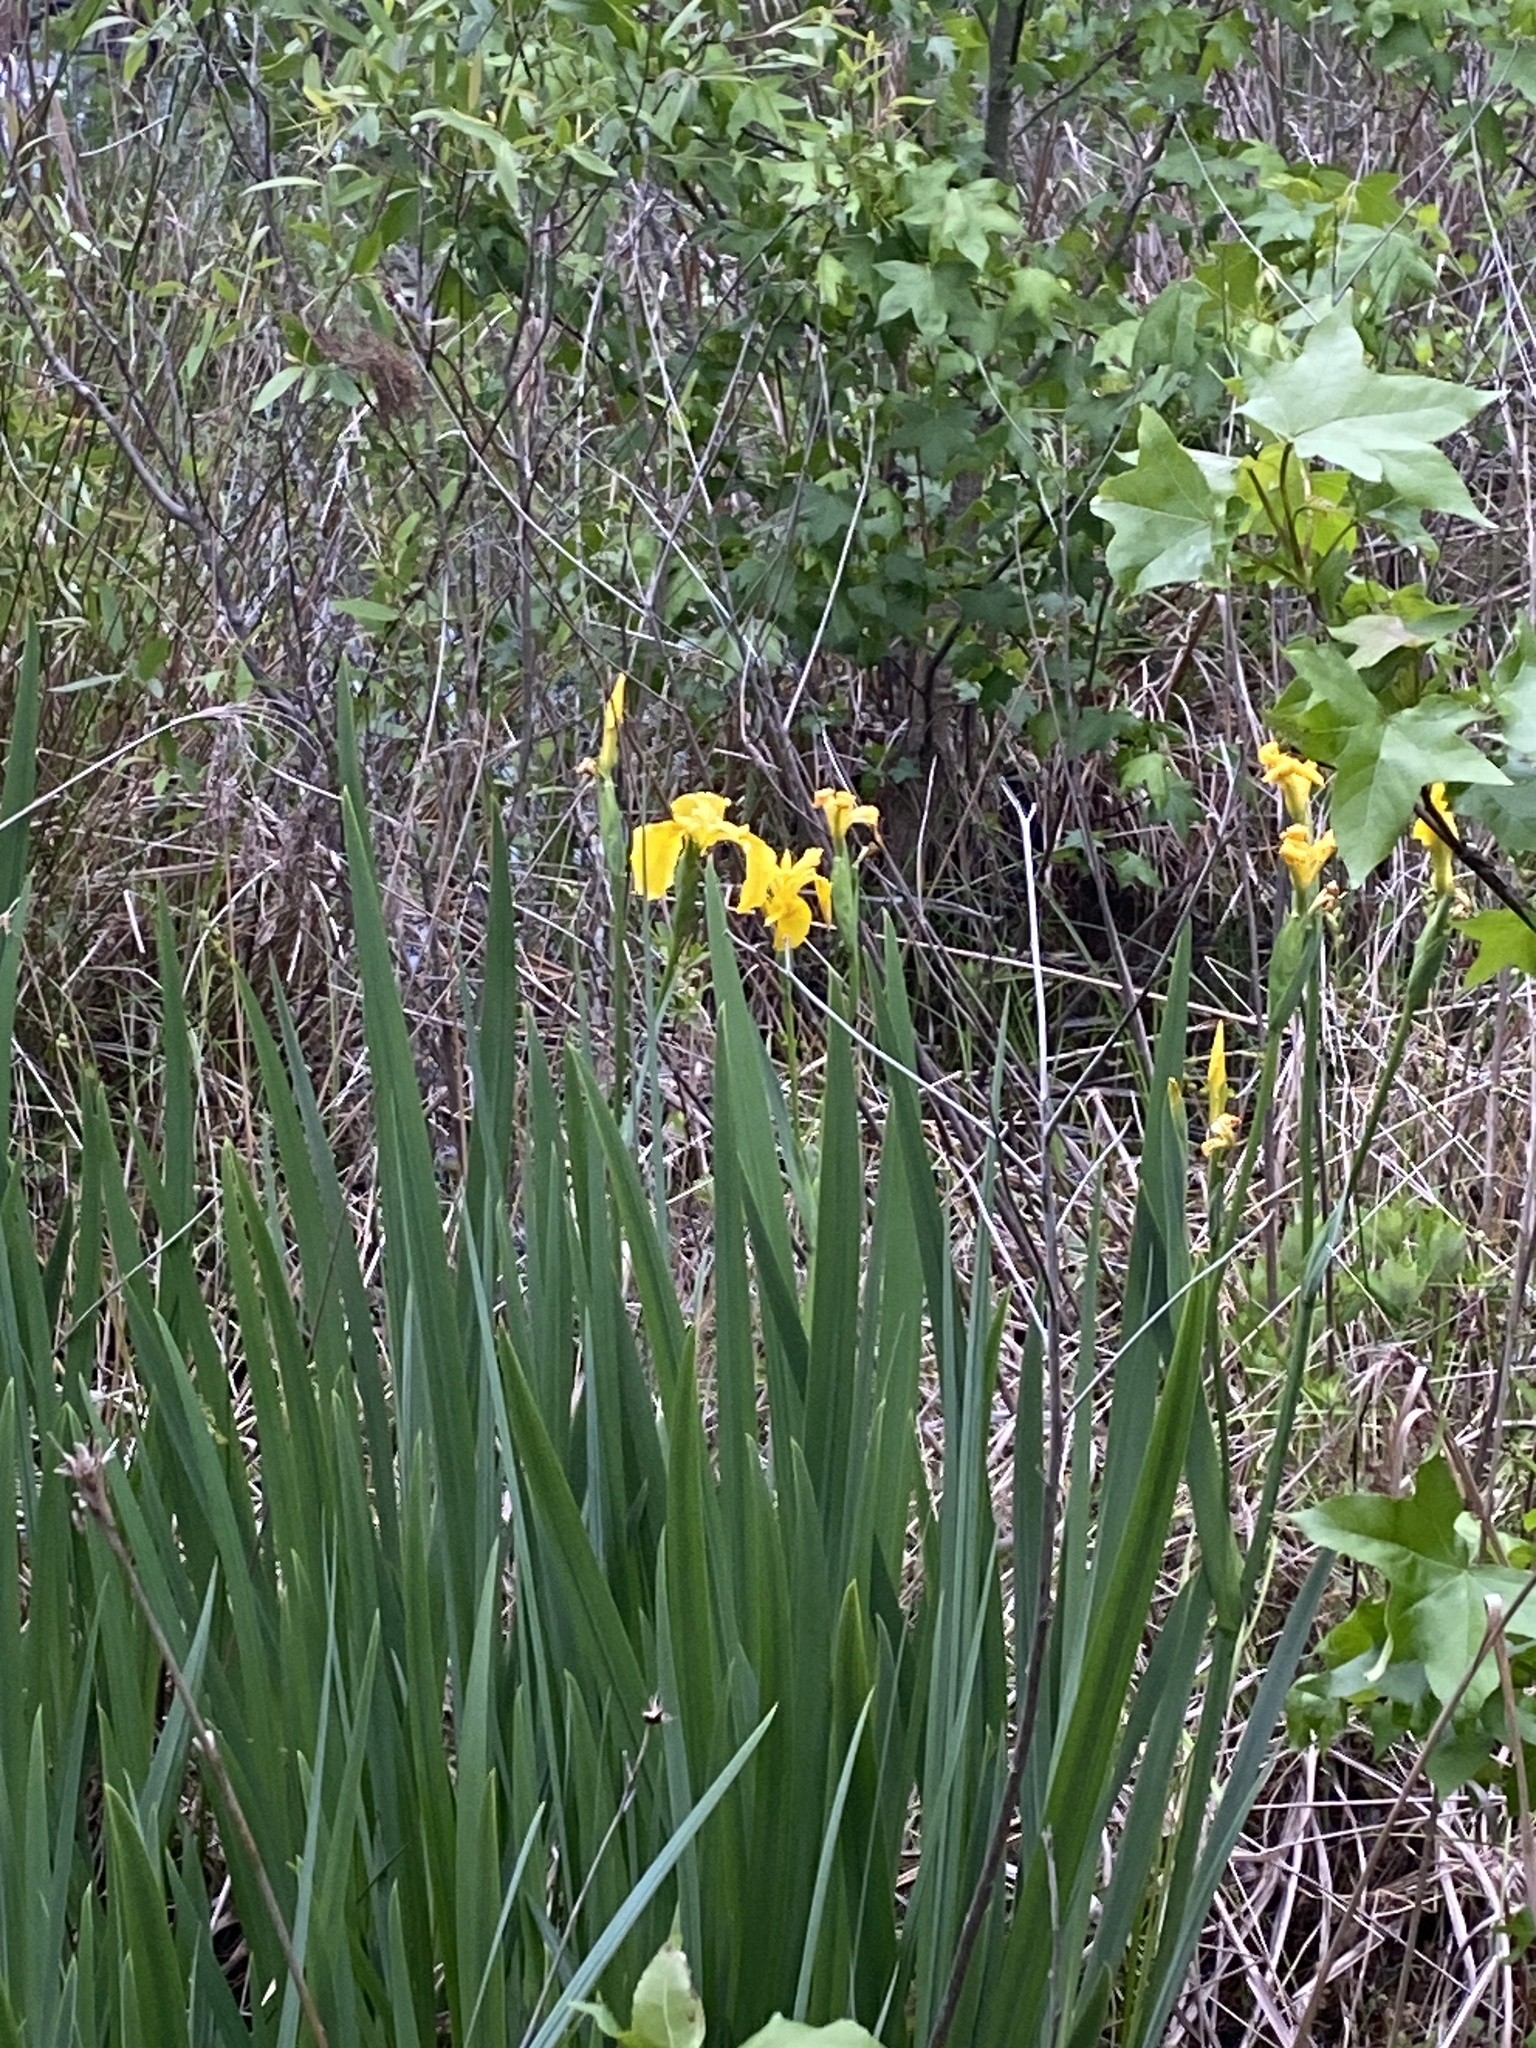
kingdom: Plantae
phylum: Tracheophyta
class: Liliopsida
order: Asparagales
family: Iridaceae
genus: Iris
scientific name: Iris pseudacorus
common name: Yellow flag
